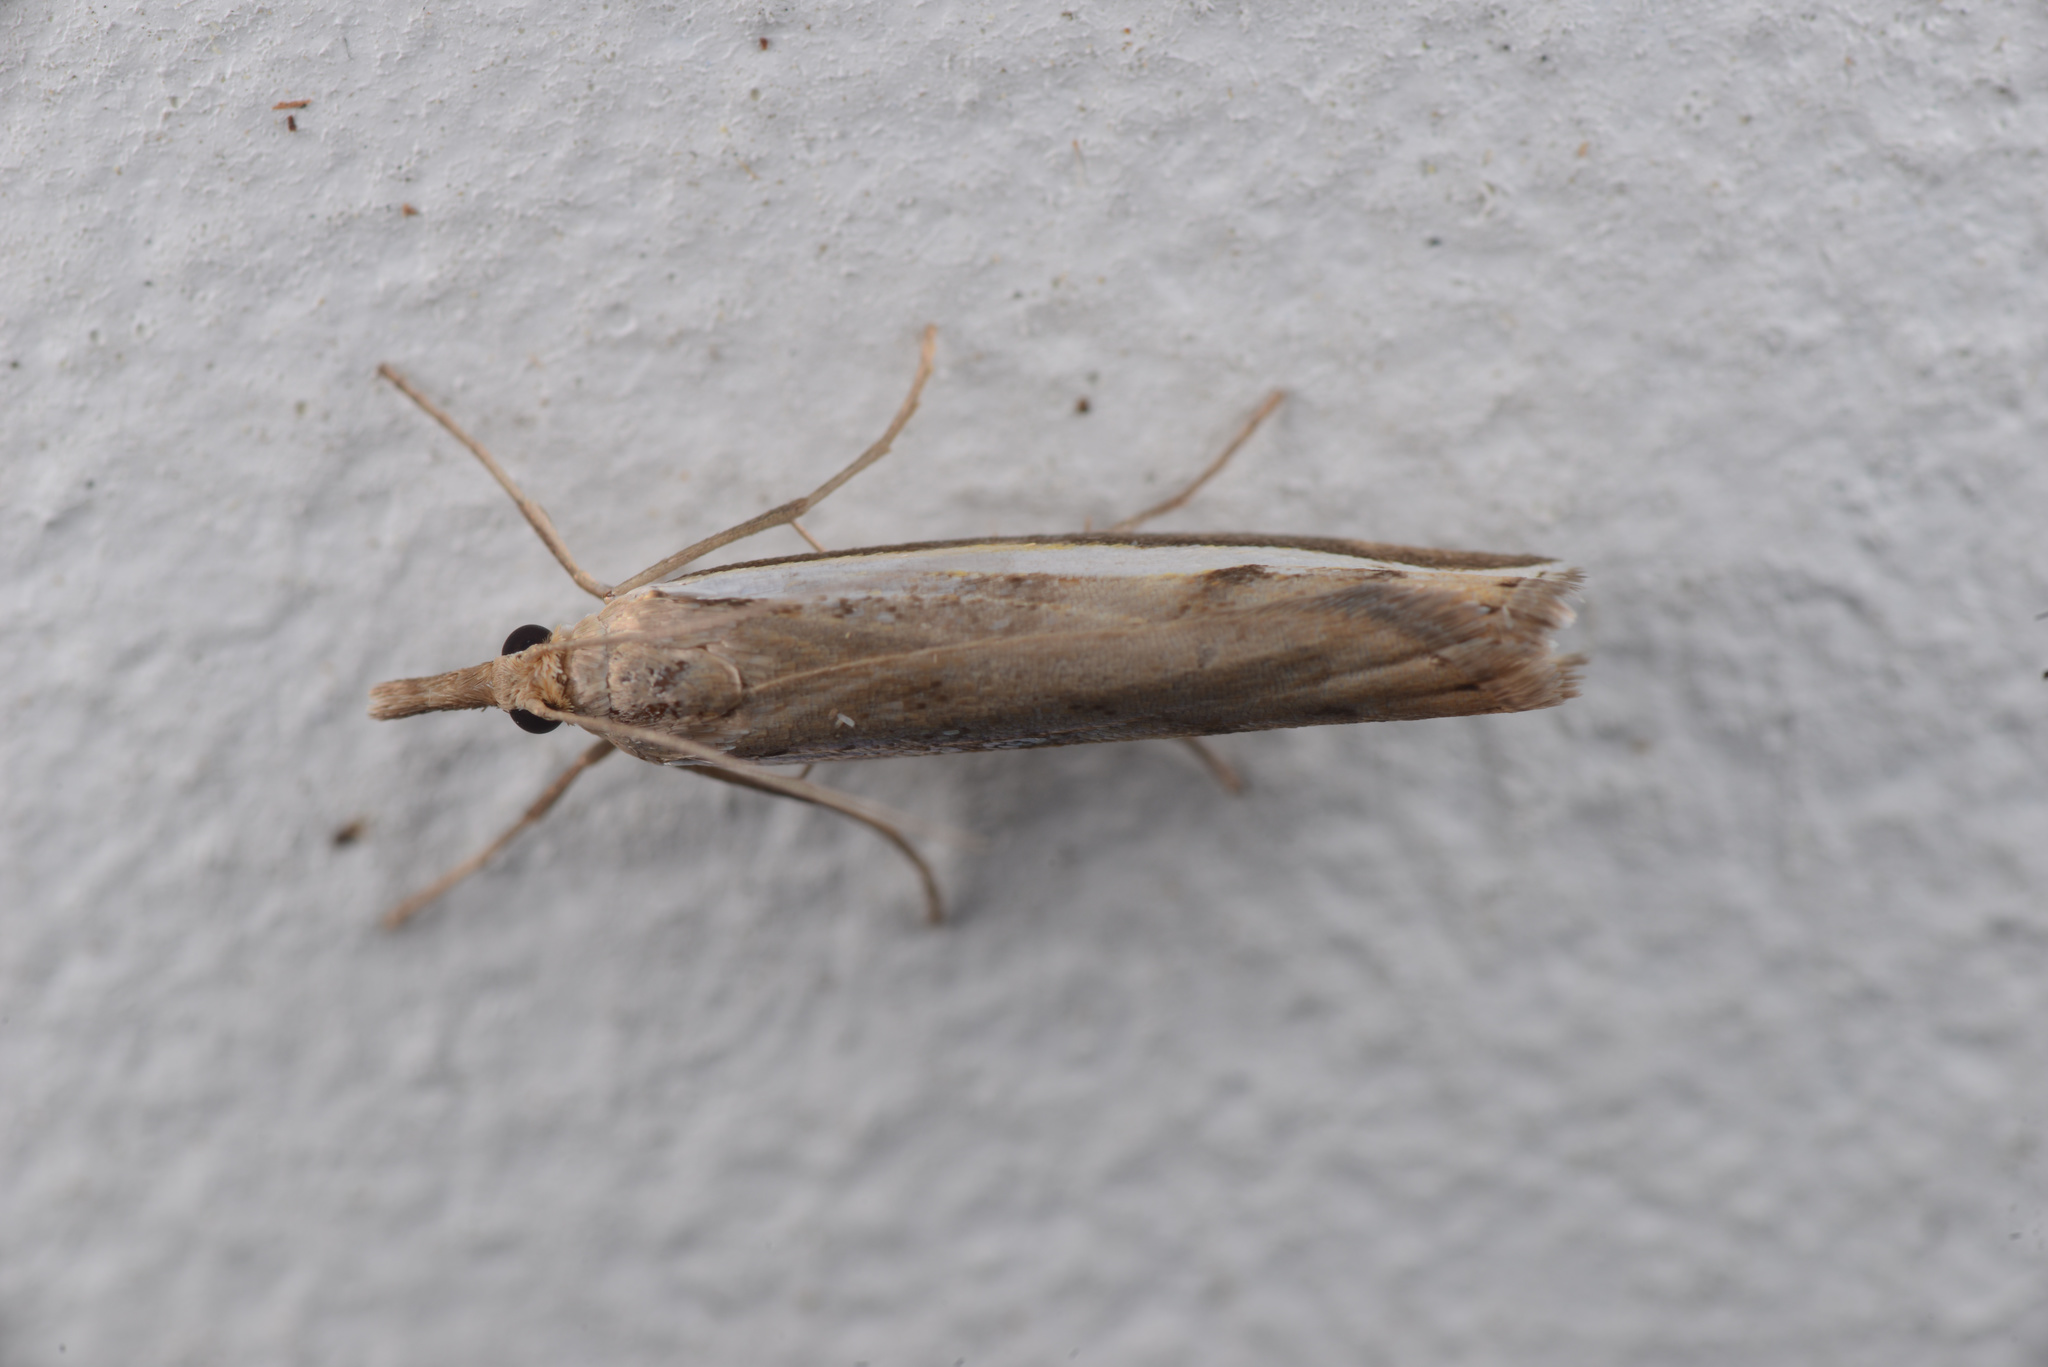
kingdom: Animalia
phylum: Arthropoda
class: Insecta
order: Lepidoptera
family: Crambidae
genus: Orocrambus
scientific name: Orocrambus flexuosellus
